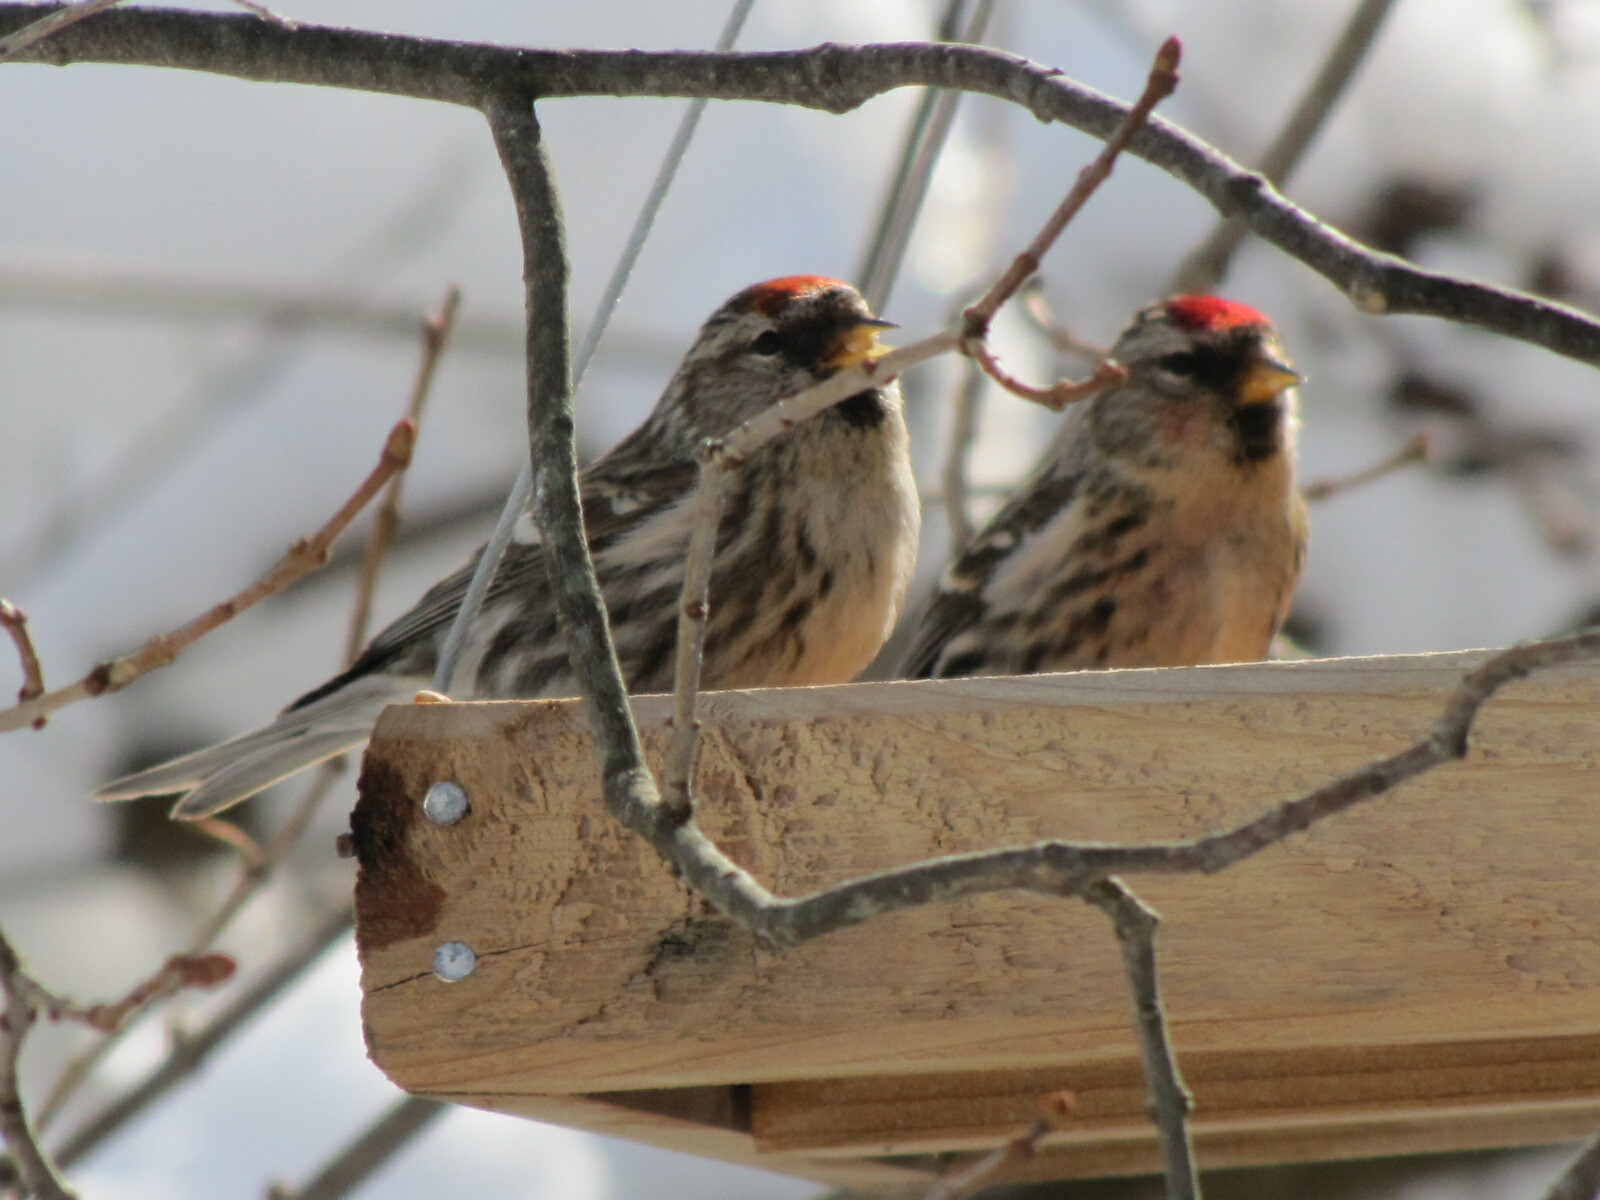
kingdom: Animalia
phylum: Chordata
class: Aves
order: Passeriformes
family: Fringillidae
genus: Acanthis
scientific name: Acanthis flammea
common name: Common redpoll
